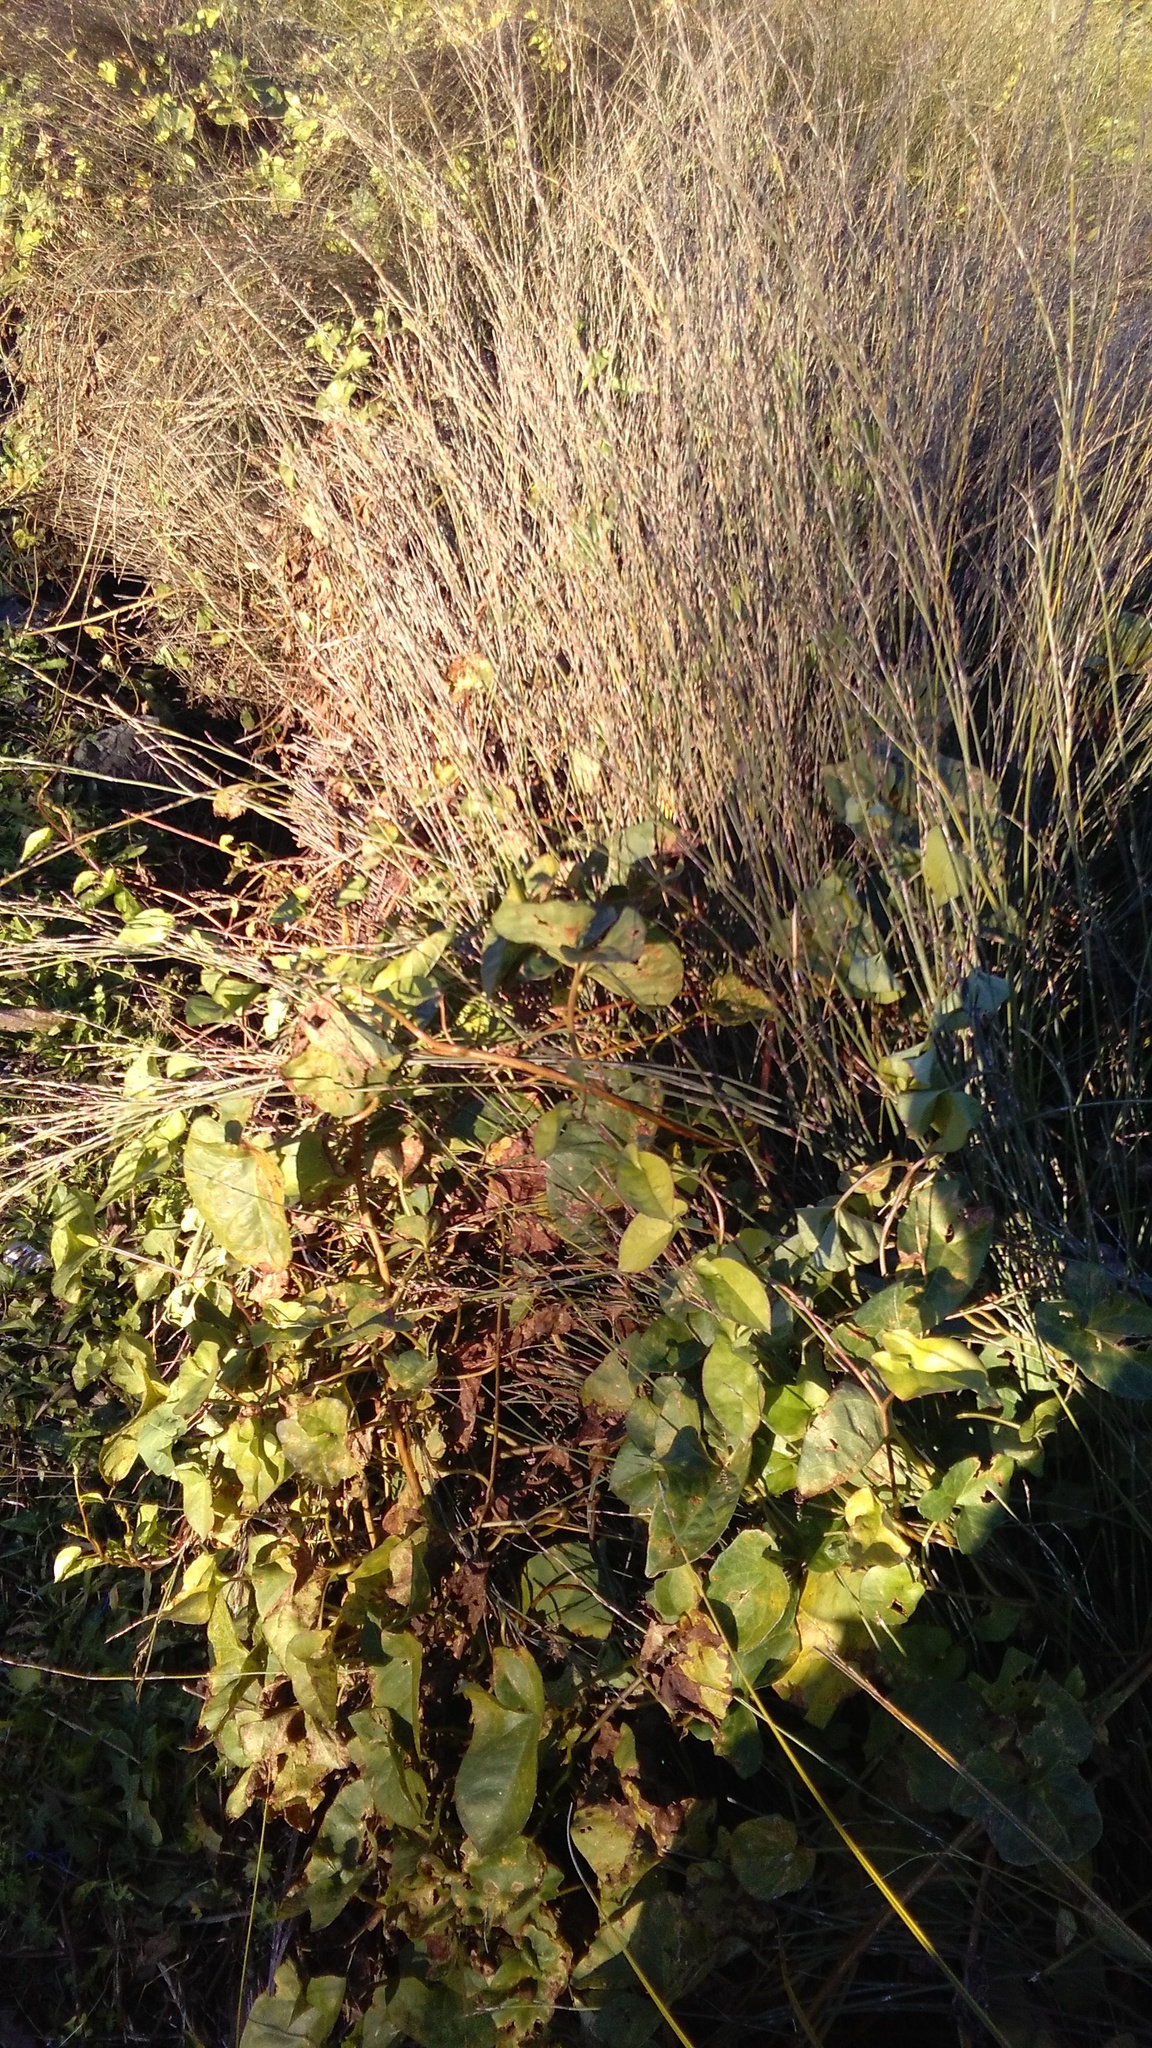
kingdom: Plantae
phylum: Tracheophyta
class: Magnoliopsida
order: Solanales
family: Convolvulaceae
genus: Calystegia
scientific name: Calystegia sepium
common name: Hedge bindweed
